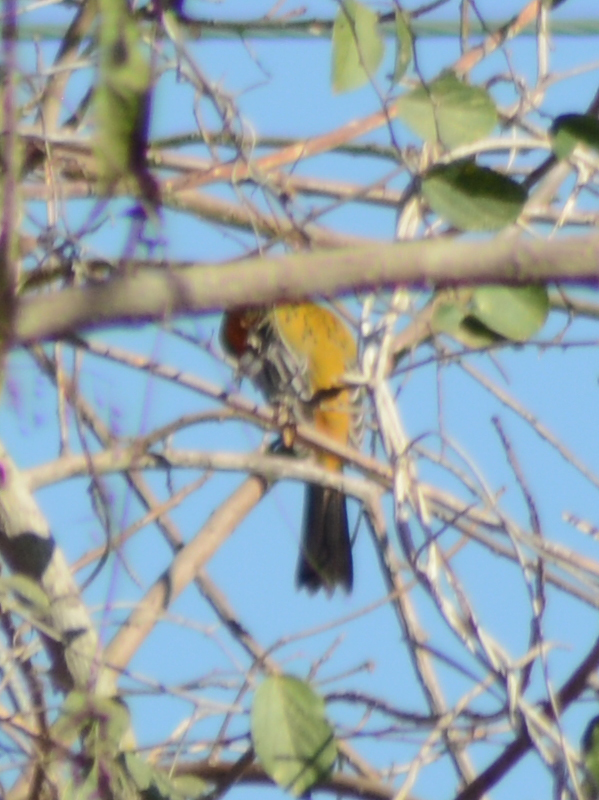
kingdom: Animalia
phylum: Chordata
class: Aves
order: Passeriformes
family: Icteridae
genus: Icterus
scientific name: Icterus pustulatus
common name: Streak-backed oriole
